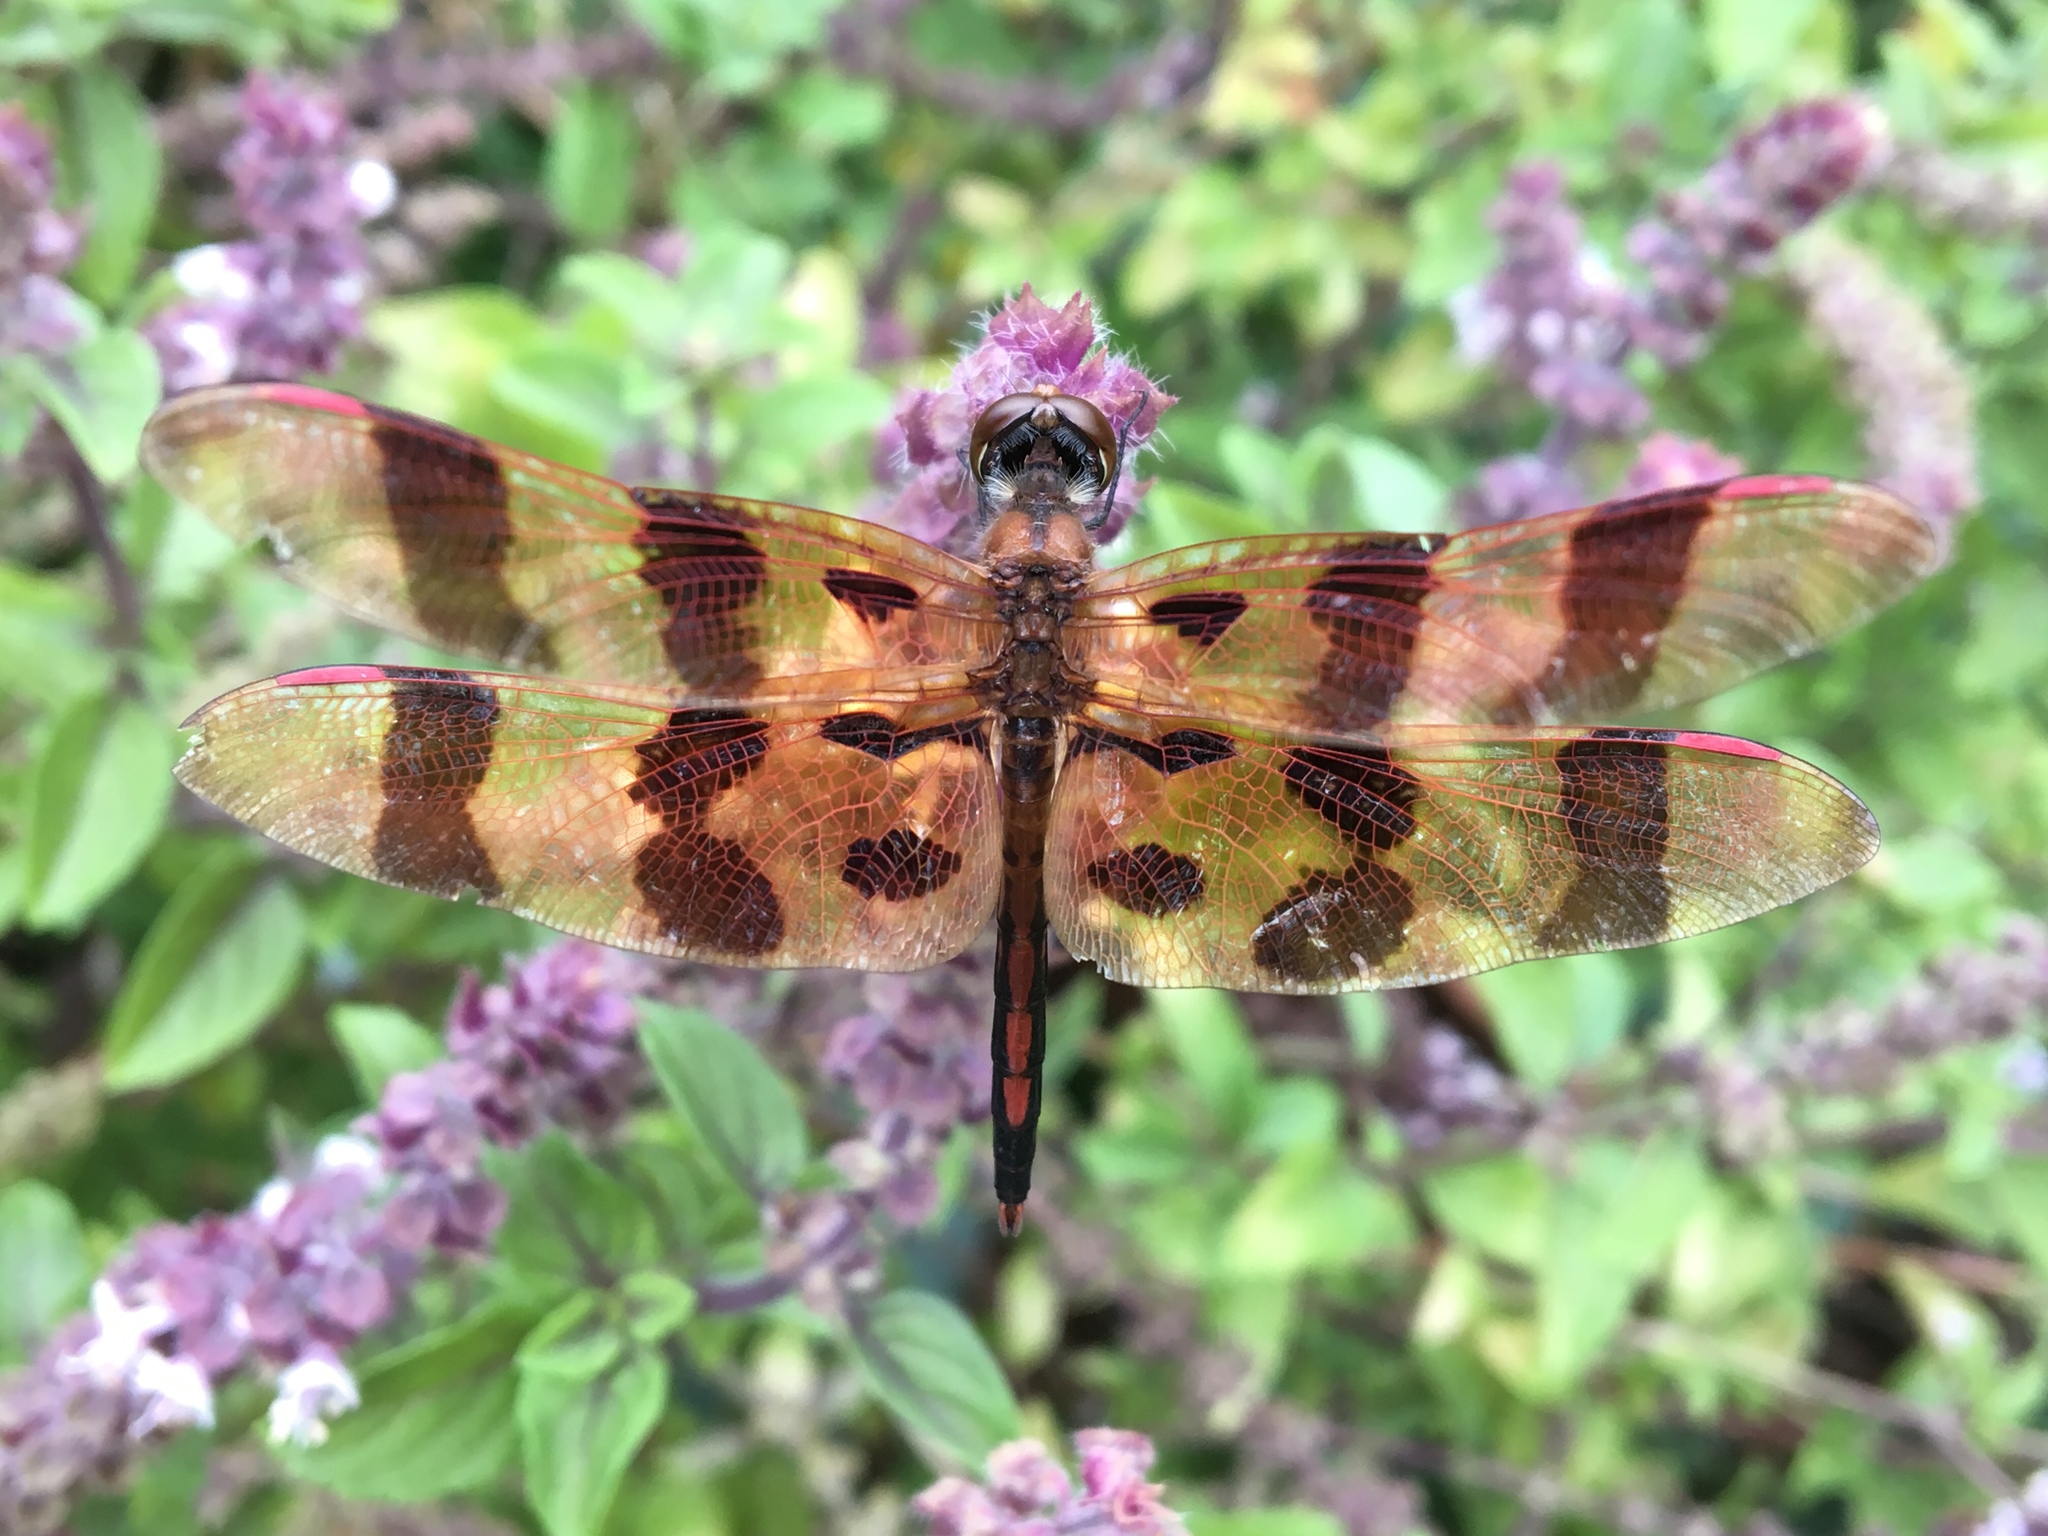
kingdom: Animalia
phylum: Arthropoda
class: Insecta
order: Odonata
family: Libellulidae
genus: Celithemis
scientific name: Celithemis eponina
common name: Halloween pennant
